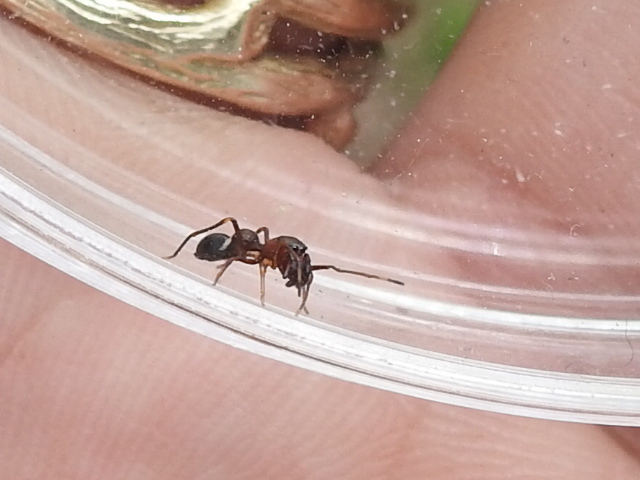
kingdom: Animalia
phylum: Arthropoda
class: Arachnida
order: Araneae
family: Salticidae
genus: Sarinda
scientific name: Sarinda hentzi
